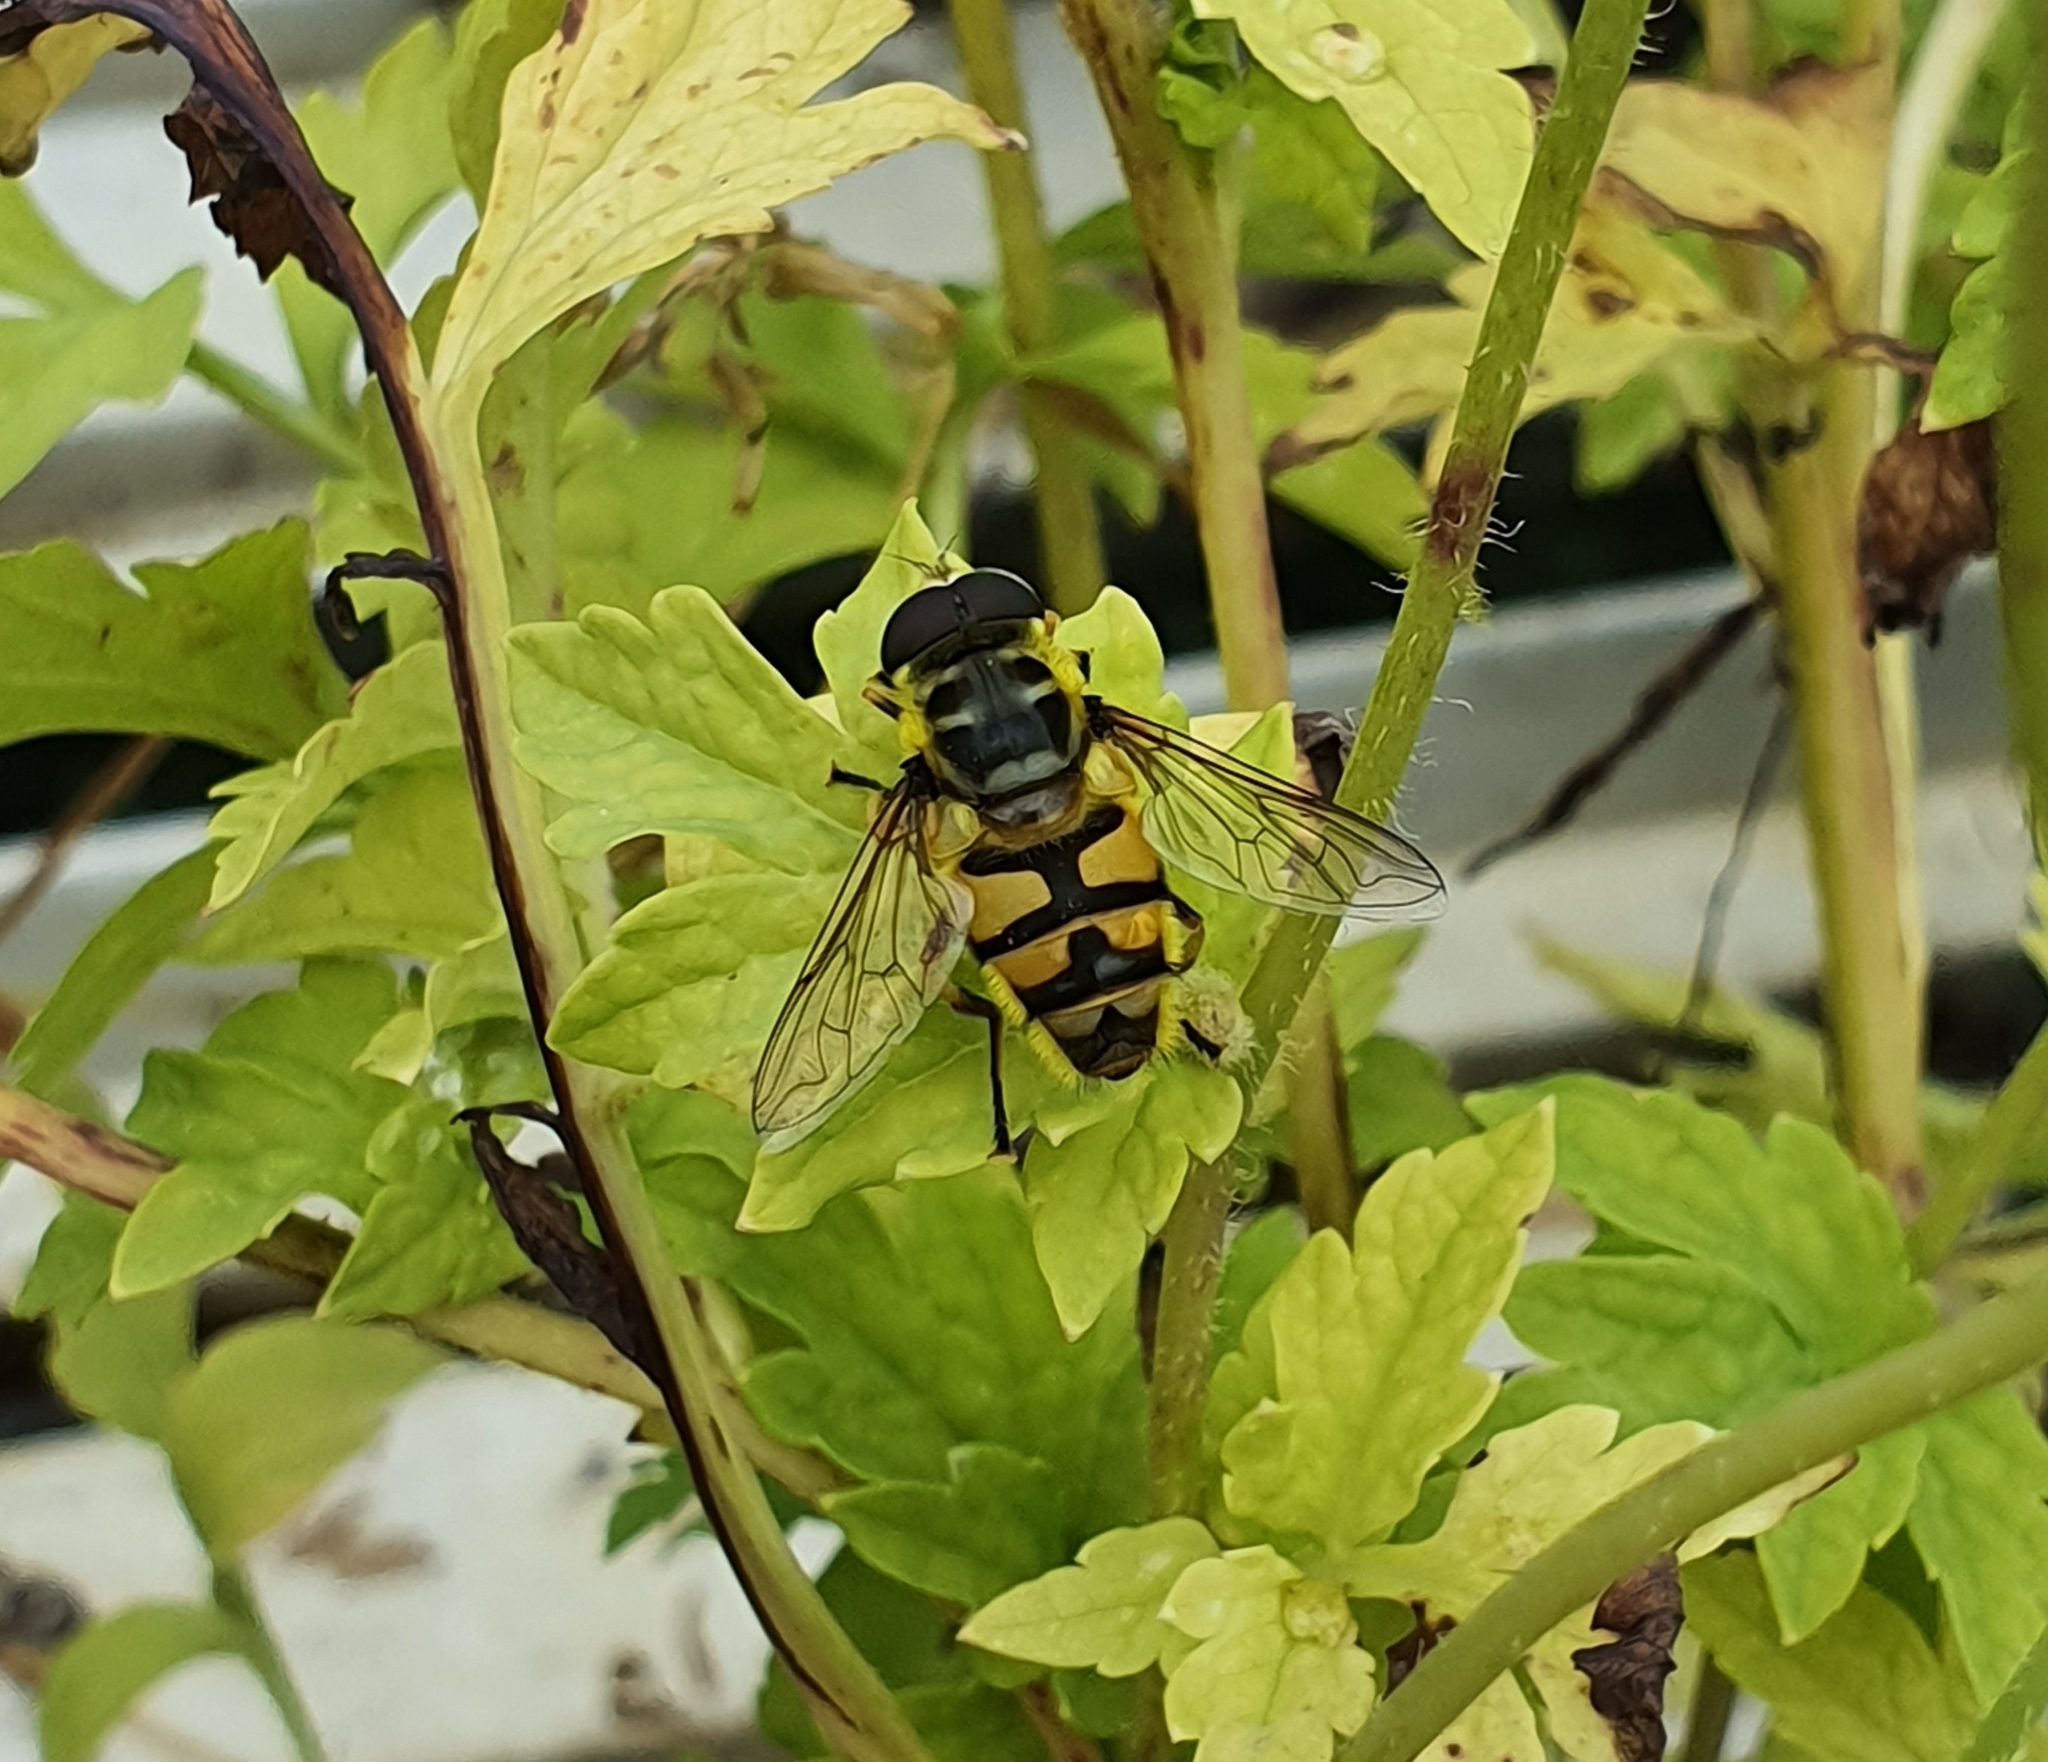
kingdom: Animalia
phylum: Arthropoda
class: Insecta
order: Diptera
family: Syrphidae
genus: Myathropa
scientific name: Myathropa florea
